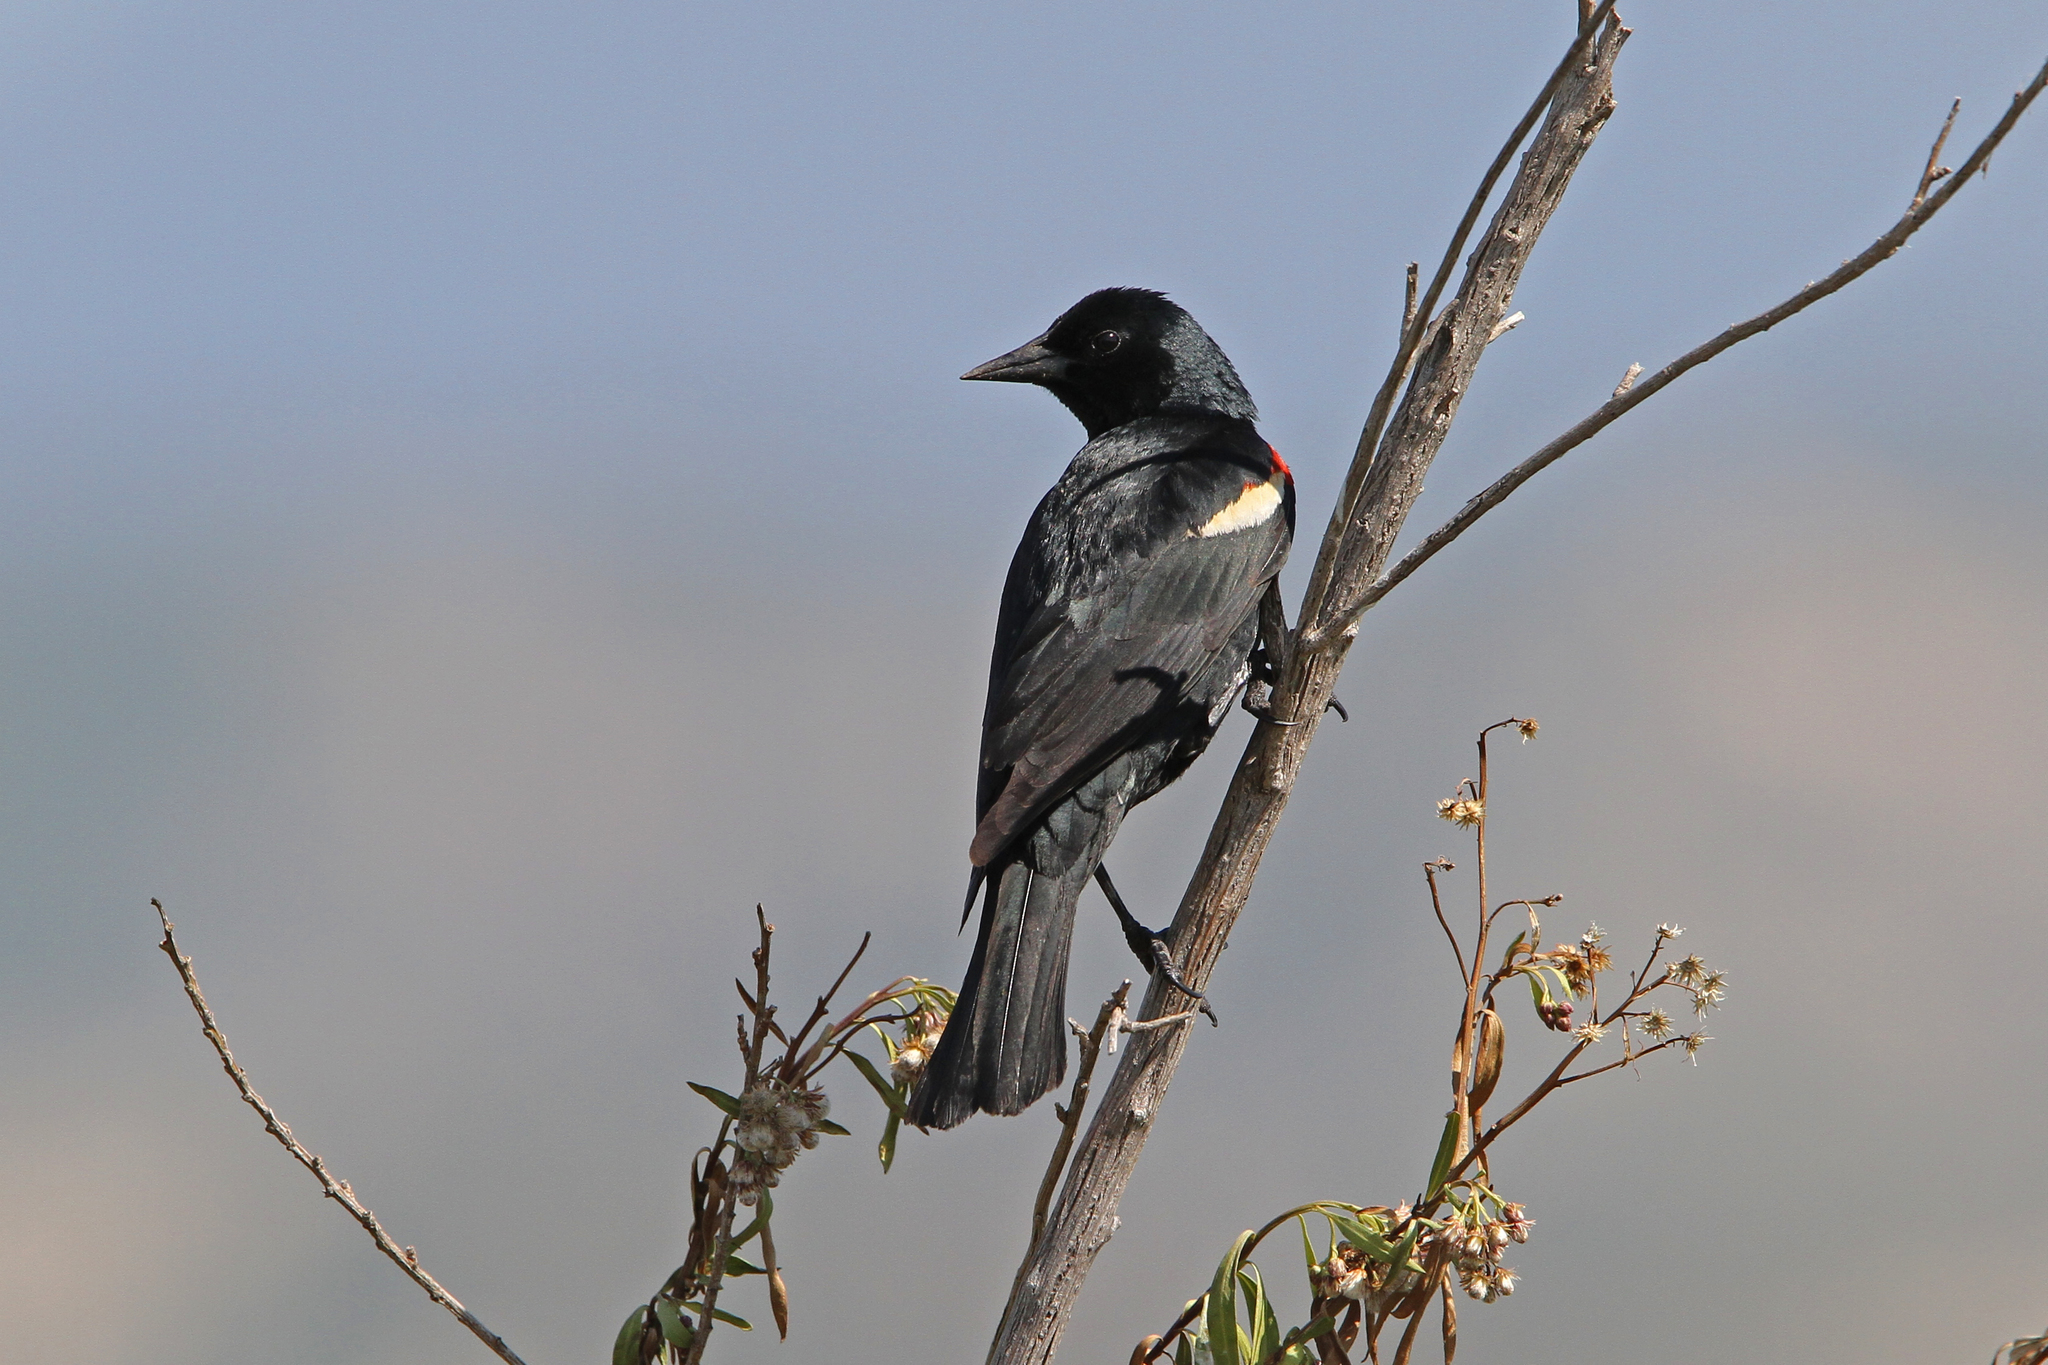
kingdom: Animalia
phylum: Chordata
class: Aves
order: Passeriformes
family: Icteridae
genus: Agelaius
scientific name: Agelaius tricolor
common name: Tricolored blackbird
